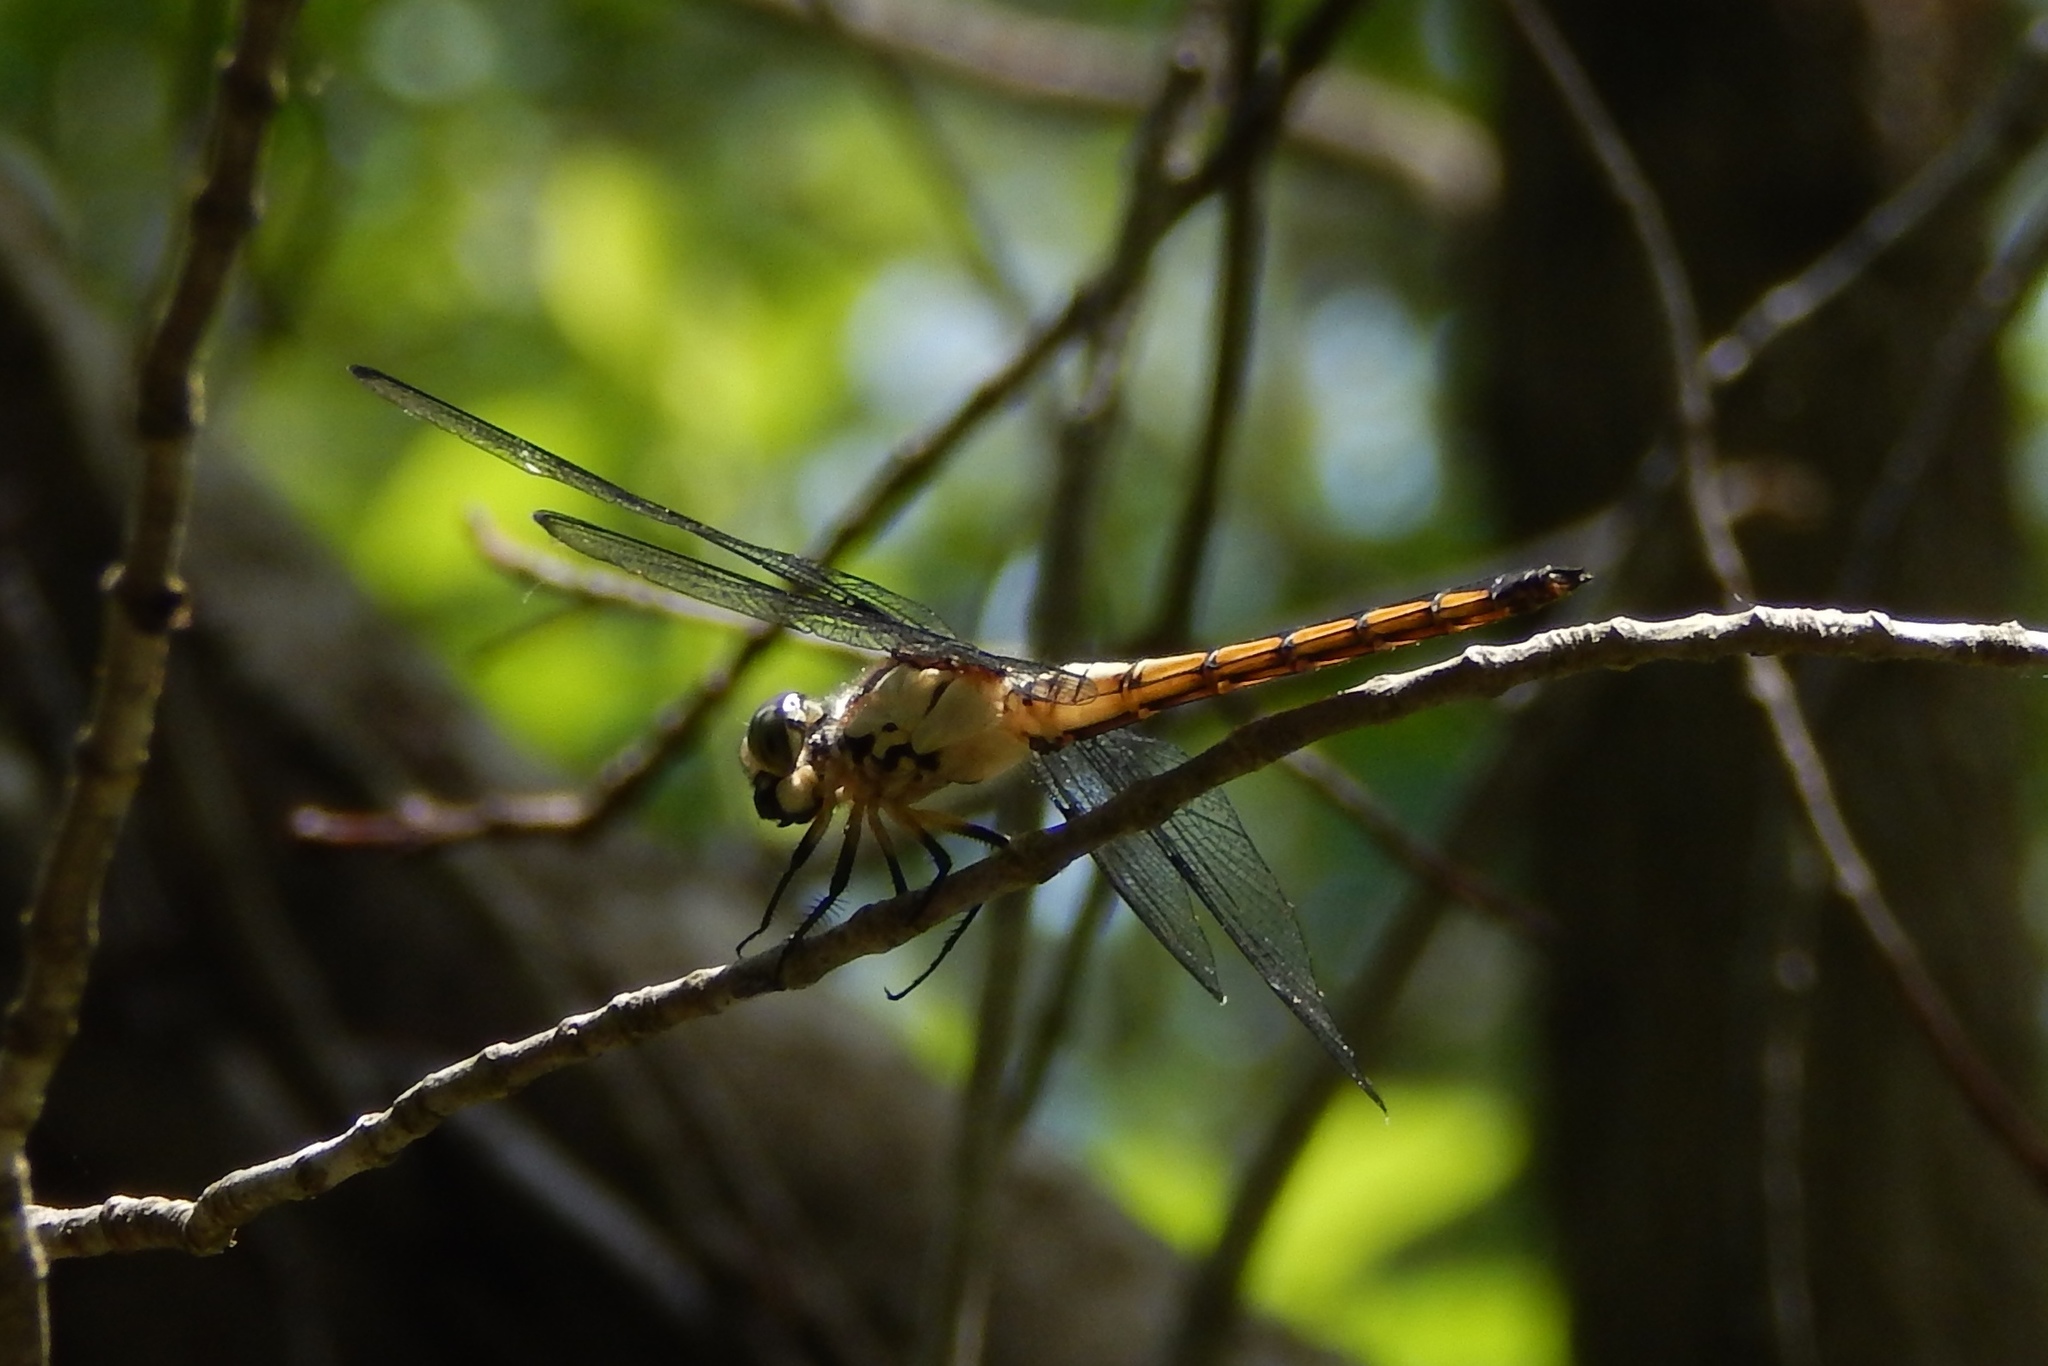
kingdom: Animalia
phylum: Arthropoda
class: Insecta
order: Odonata
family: Libellulidae
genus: Libellula
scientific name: Libellula vibrans
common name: Great blue skimmer
